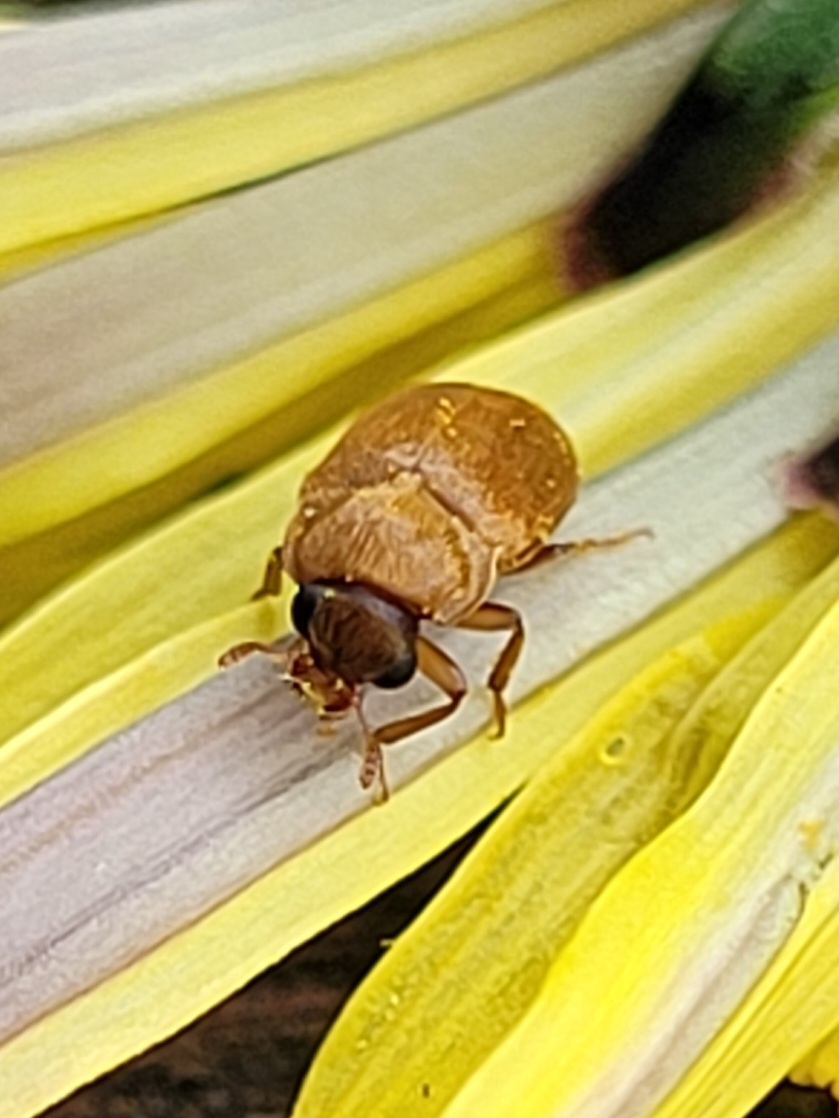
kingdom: Animalia
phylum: Arthropoda
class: Insecta
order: Coleoptera
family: Byturidae
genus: Byturus
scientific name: Byturus ochraceus
